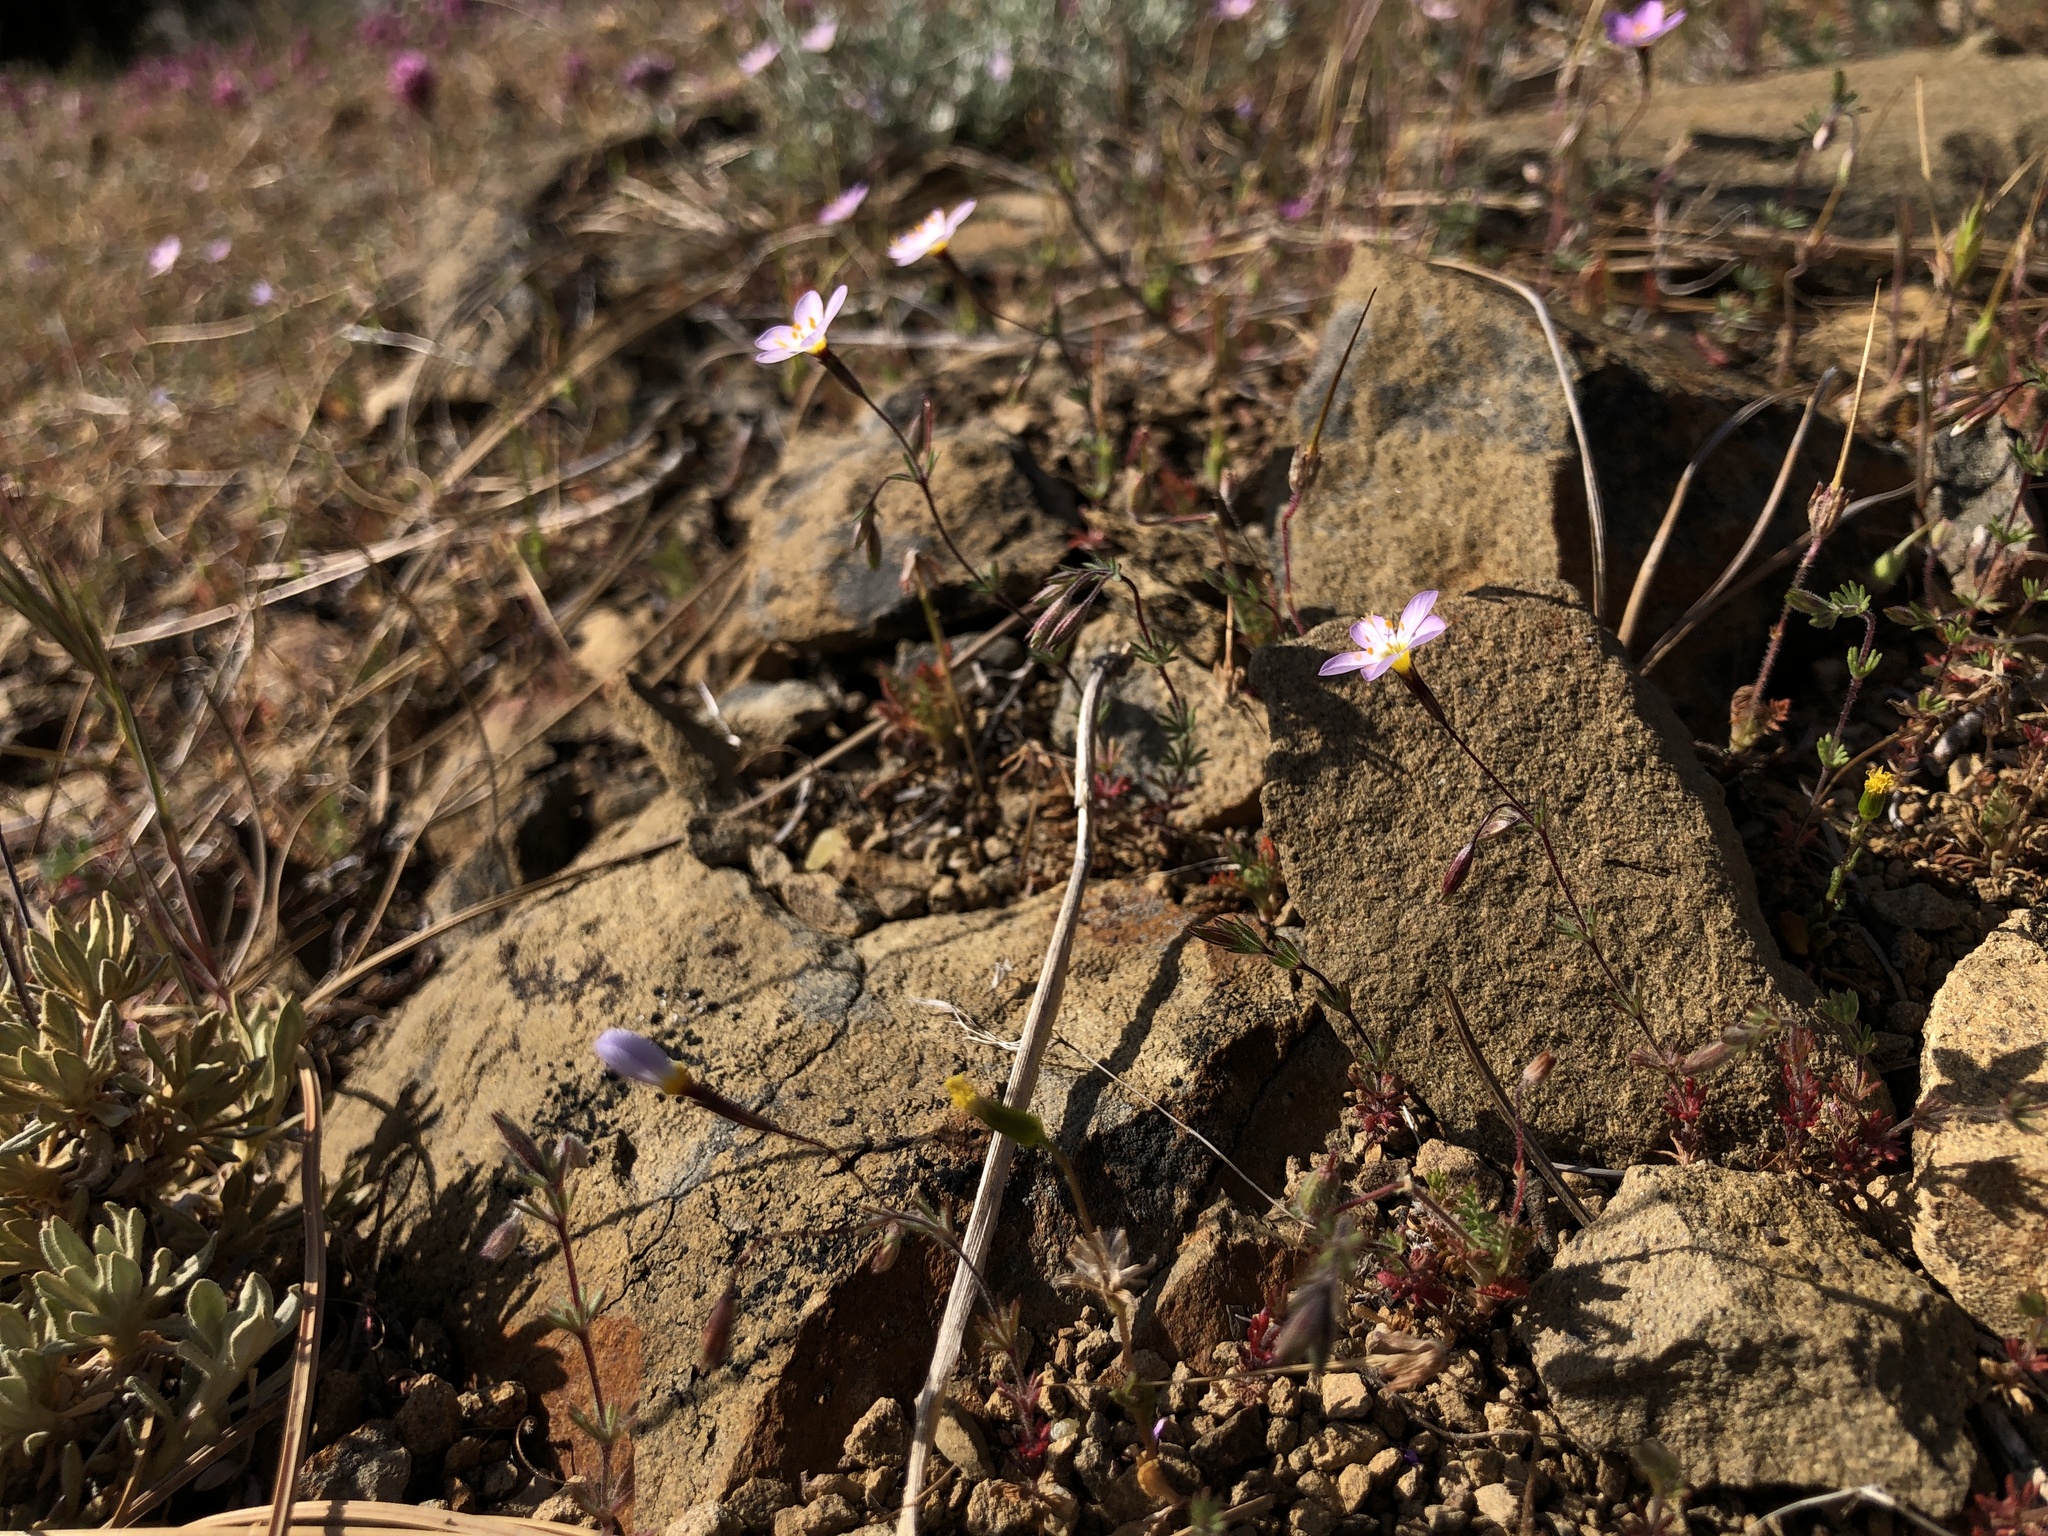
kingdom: Plantae
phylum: Tracheophyta
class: Magnoliopsida
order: Ericales
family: Polemoniaceae
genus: Leptosiphon
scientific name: Leptosiphon ambiguus
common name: Serpentine linanthus
